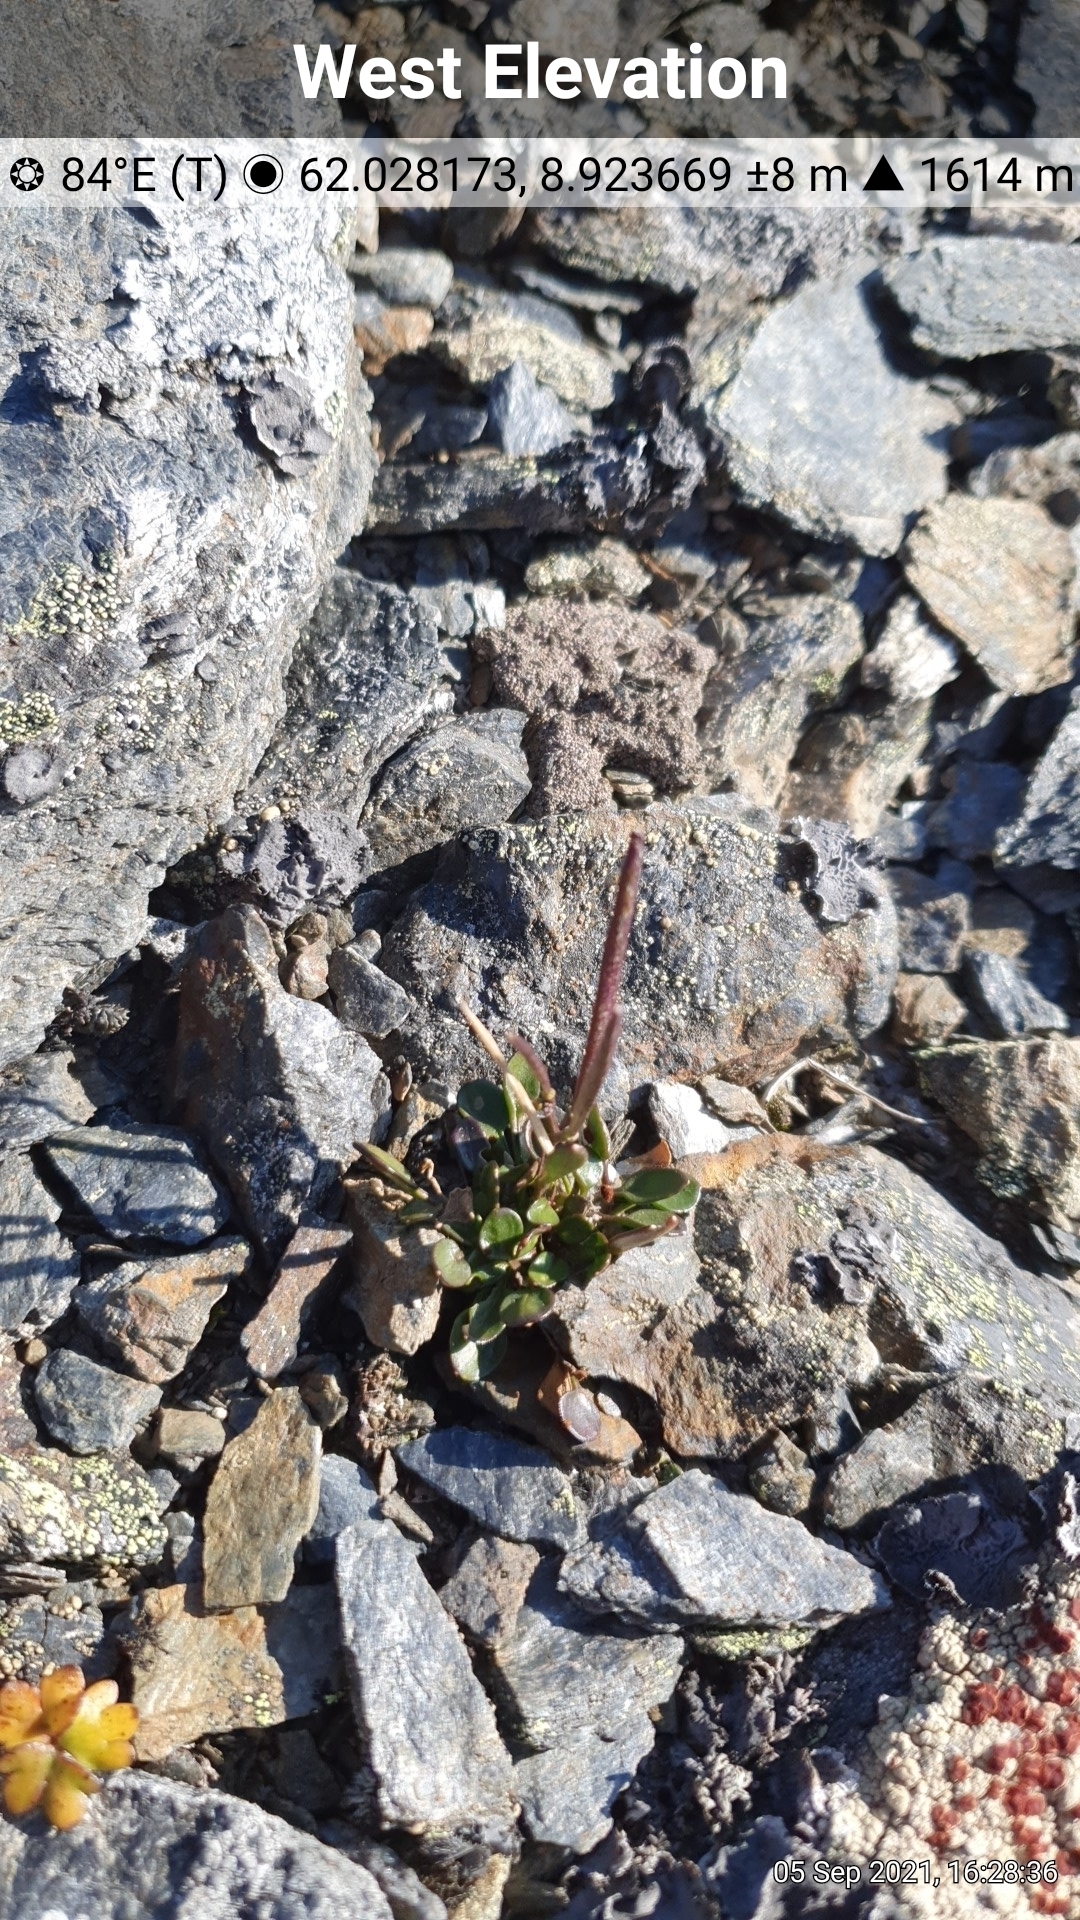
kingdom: Plantae
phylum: Tracheophyta
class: Magnoliopsida
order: Brassicales
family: Brassicaceae
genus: Cardamine
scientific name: Cardamine bellidifolia
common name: Alpine bittercress
